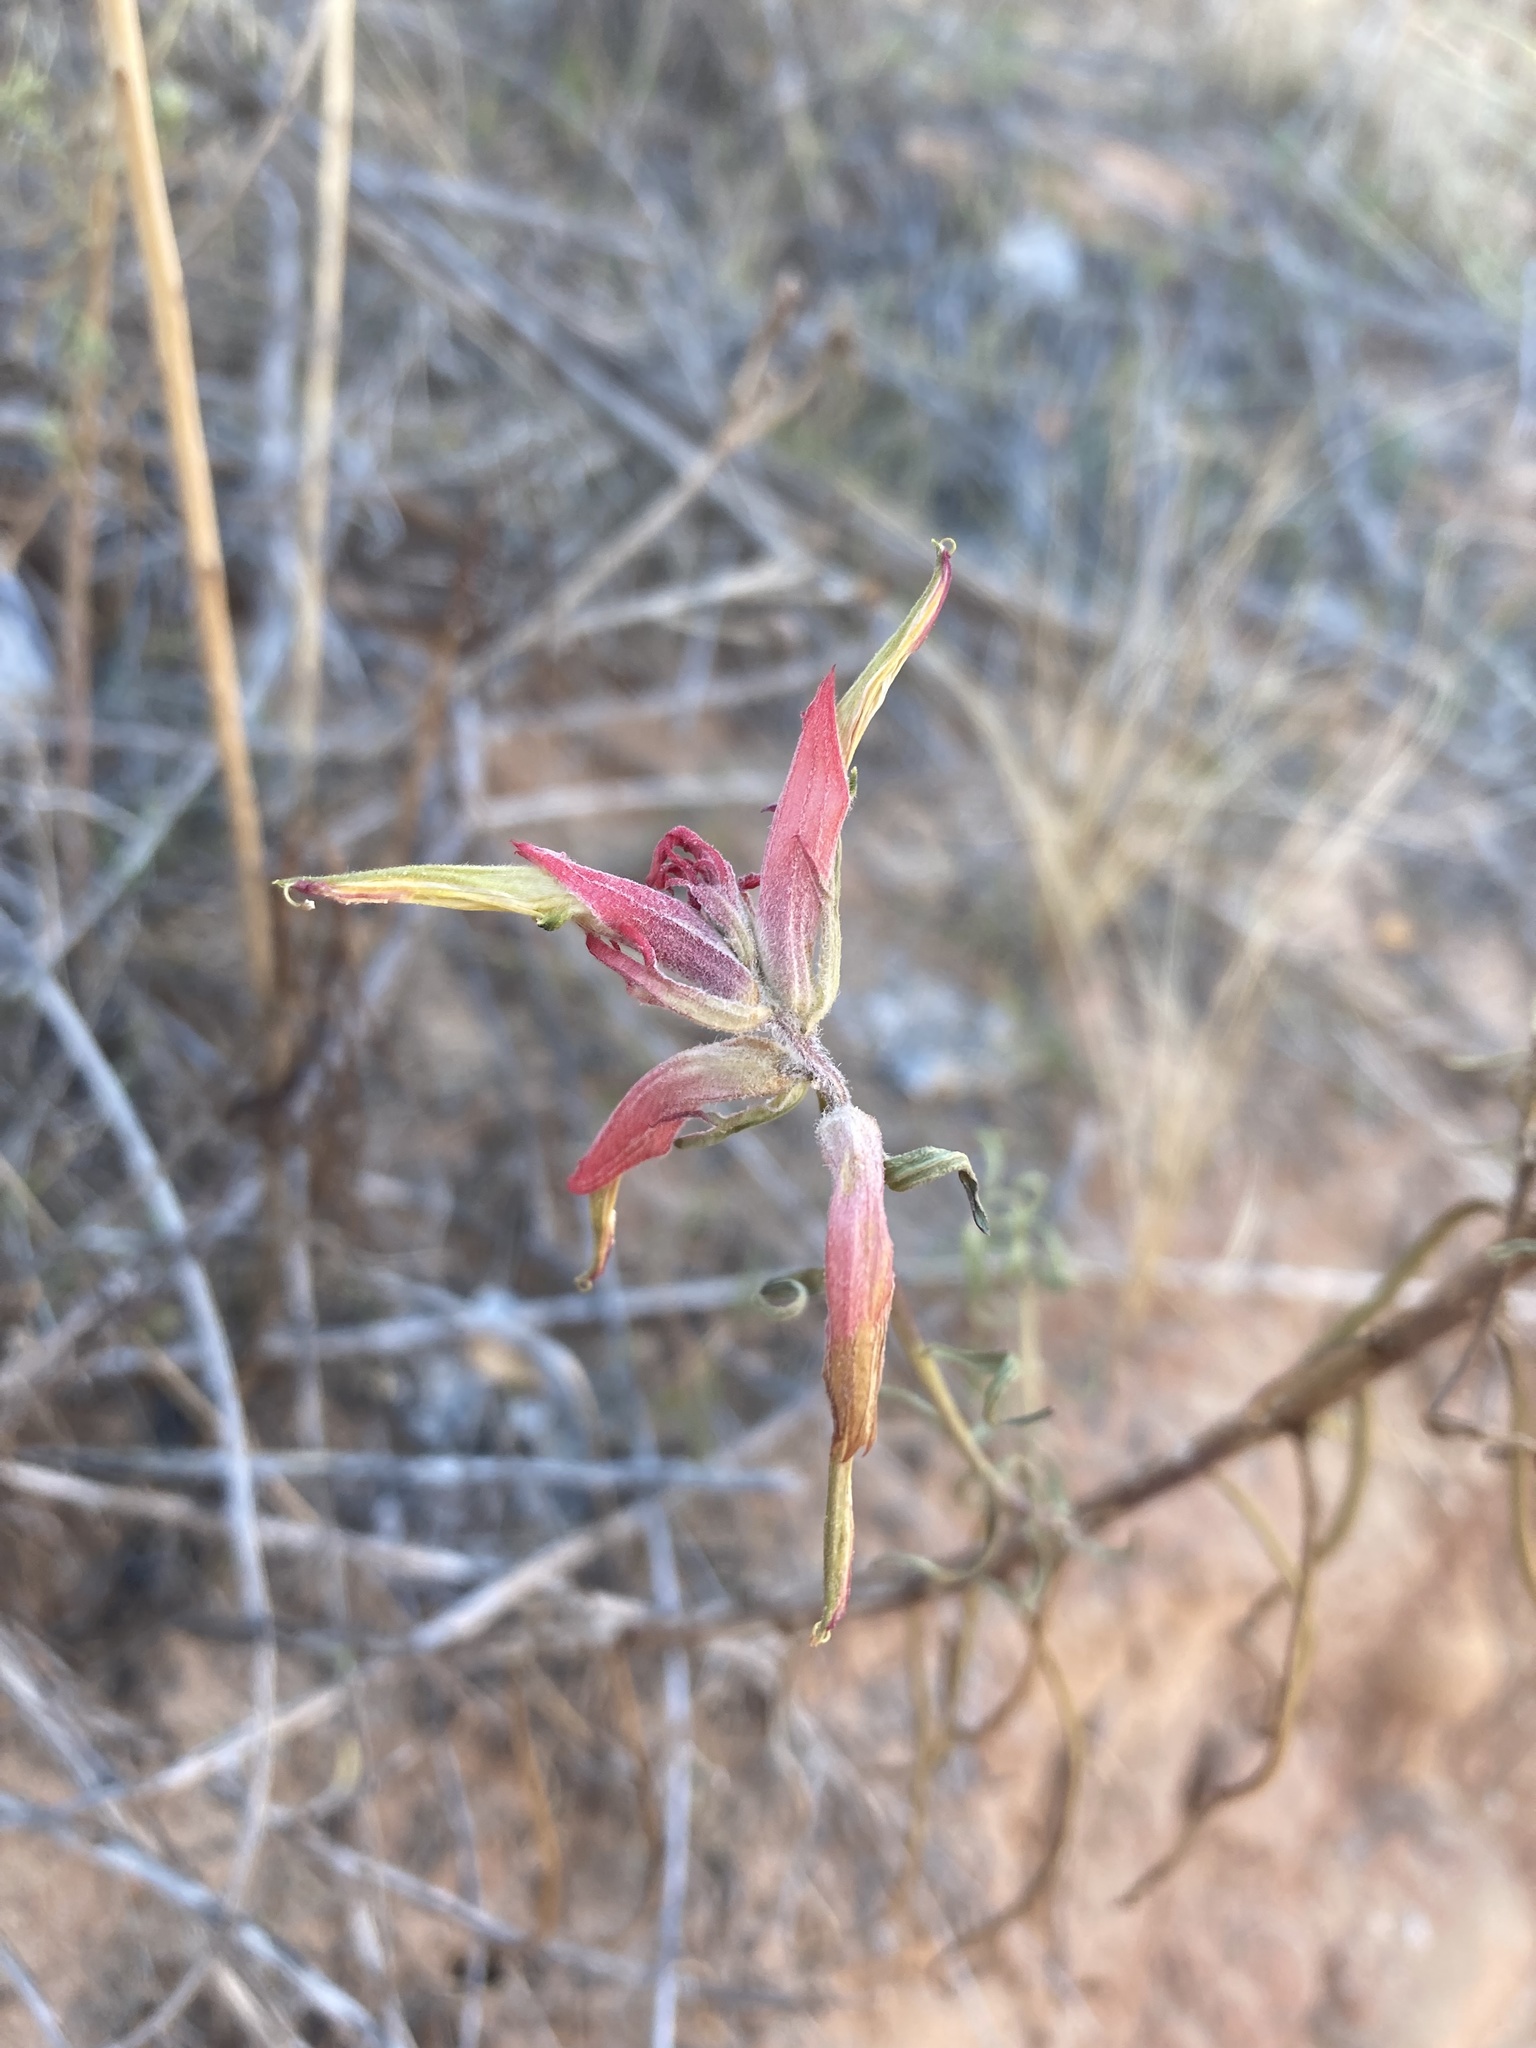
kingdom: Plantae
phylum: Tracheophyta
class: Magnoliopsida
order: Lamiales
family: Orobanchaceae
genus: Castilleja
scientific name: Castilleja linariifolia
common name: Wyoming paintbrush
